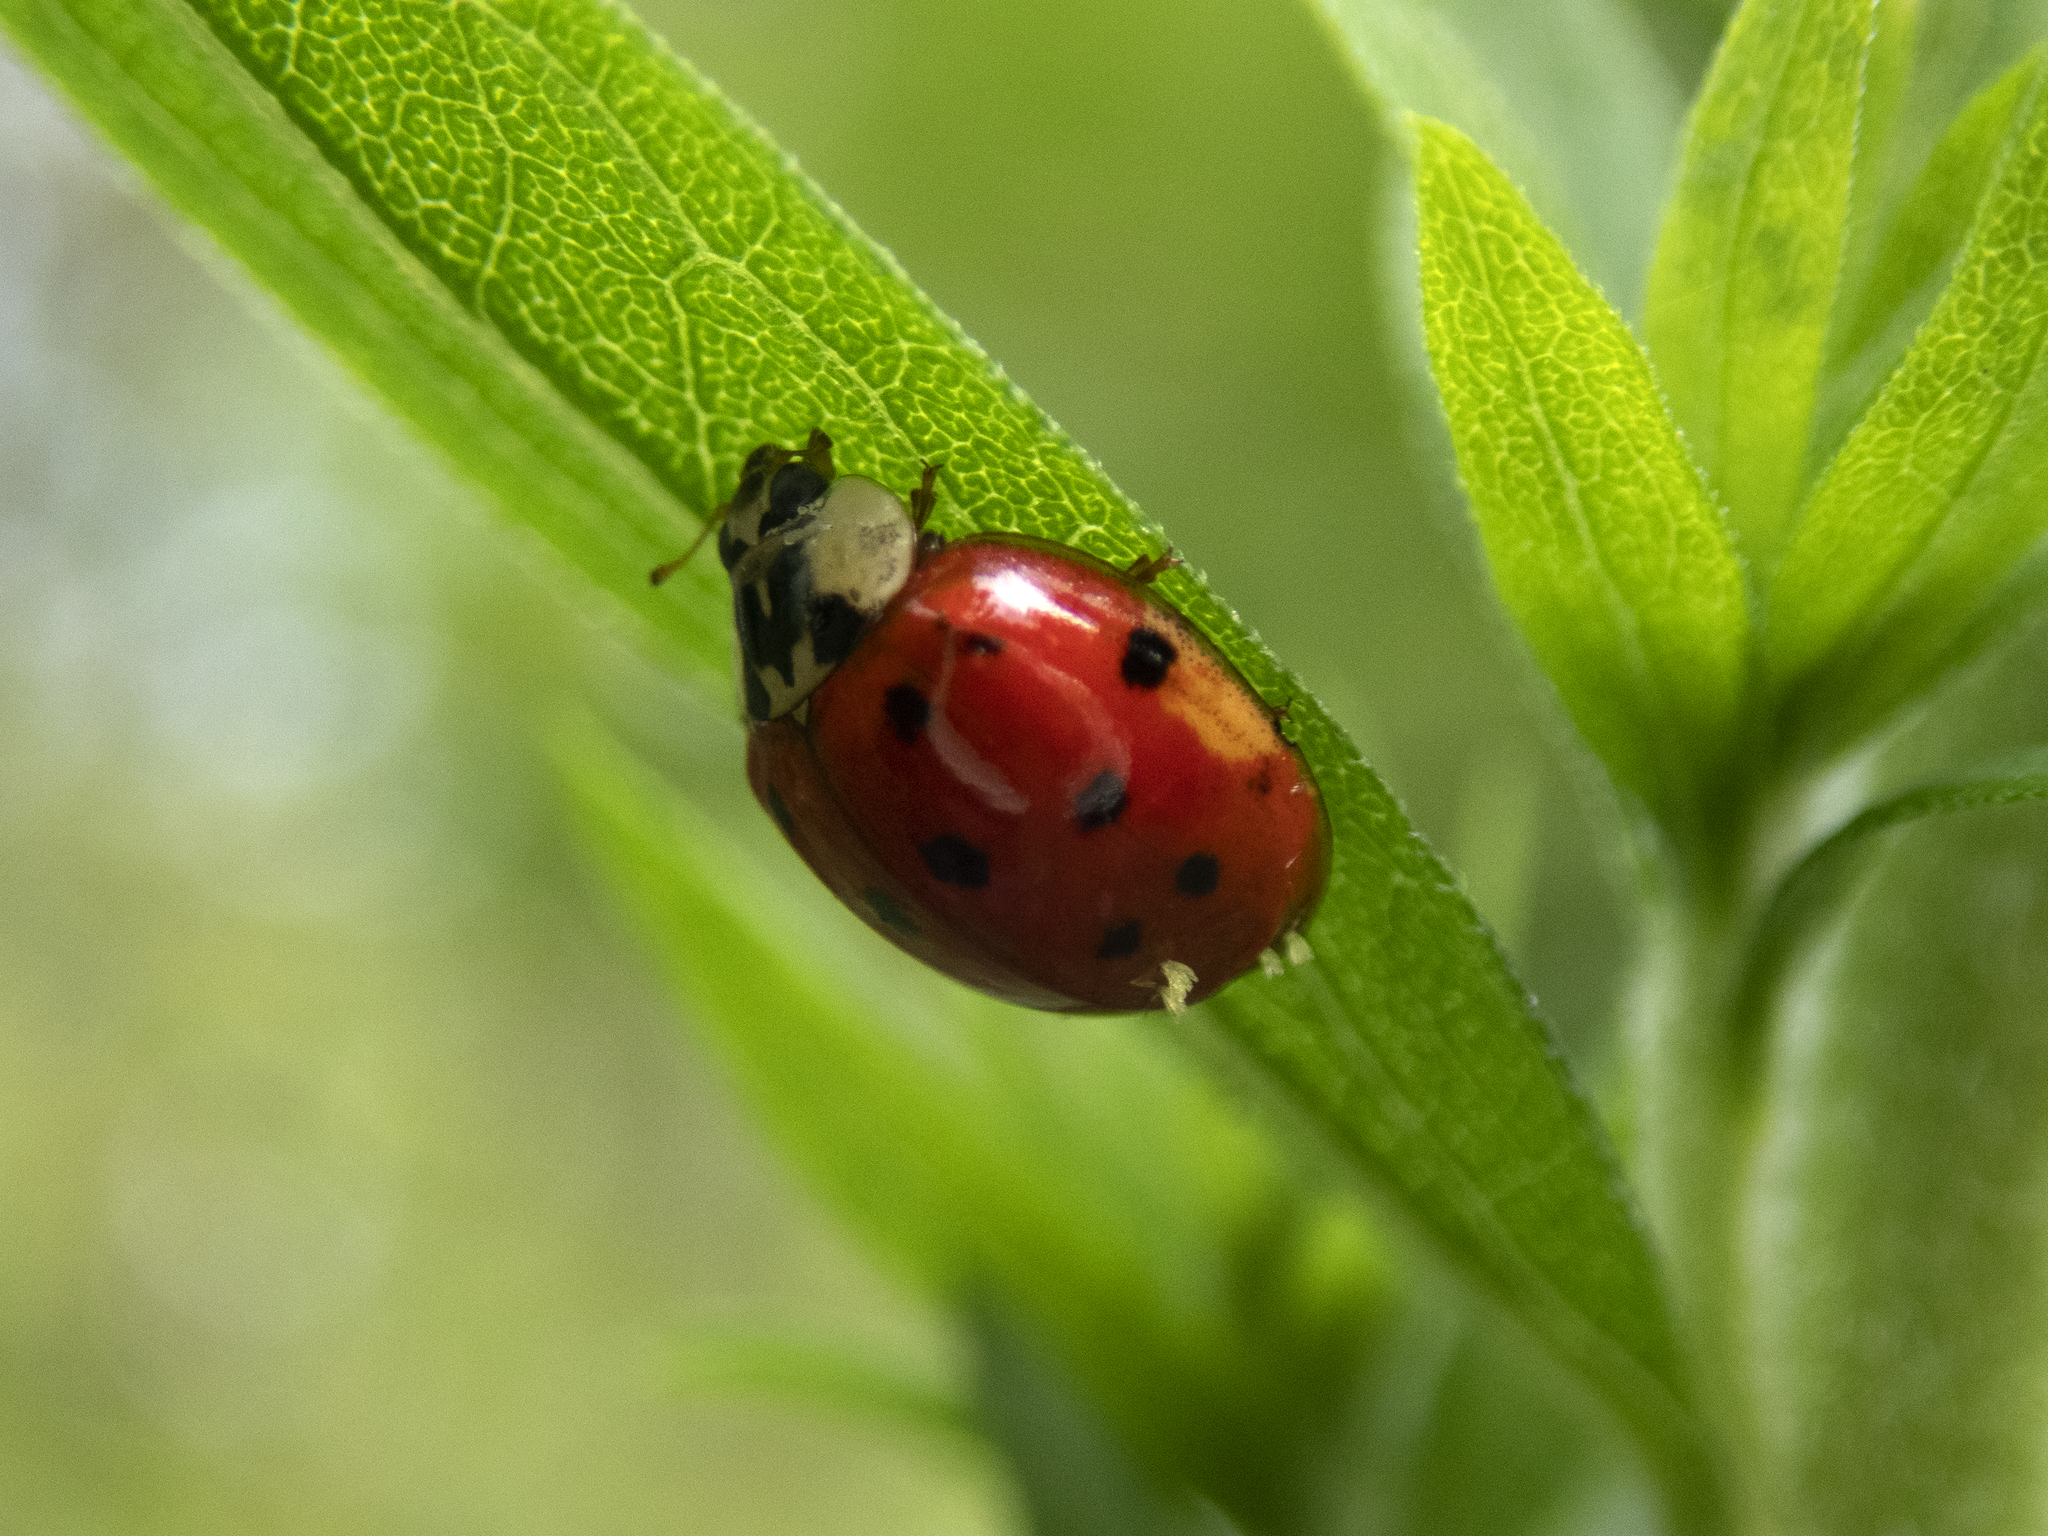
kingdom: Animalia
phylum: Arthropoda
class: Insecta
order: Coleoptera
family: Coccinellidae
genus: Harmonia
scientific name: Harmonia axyridis
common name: Harlequin ladybird
